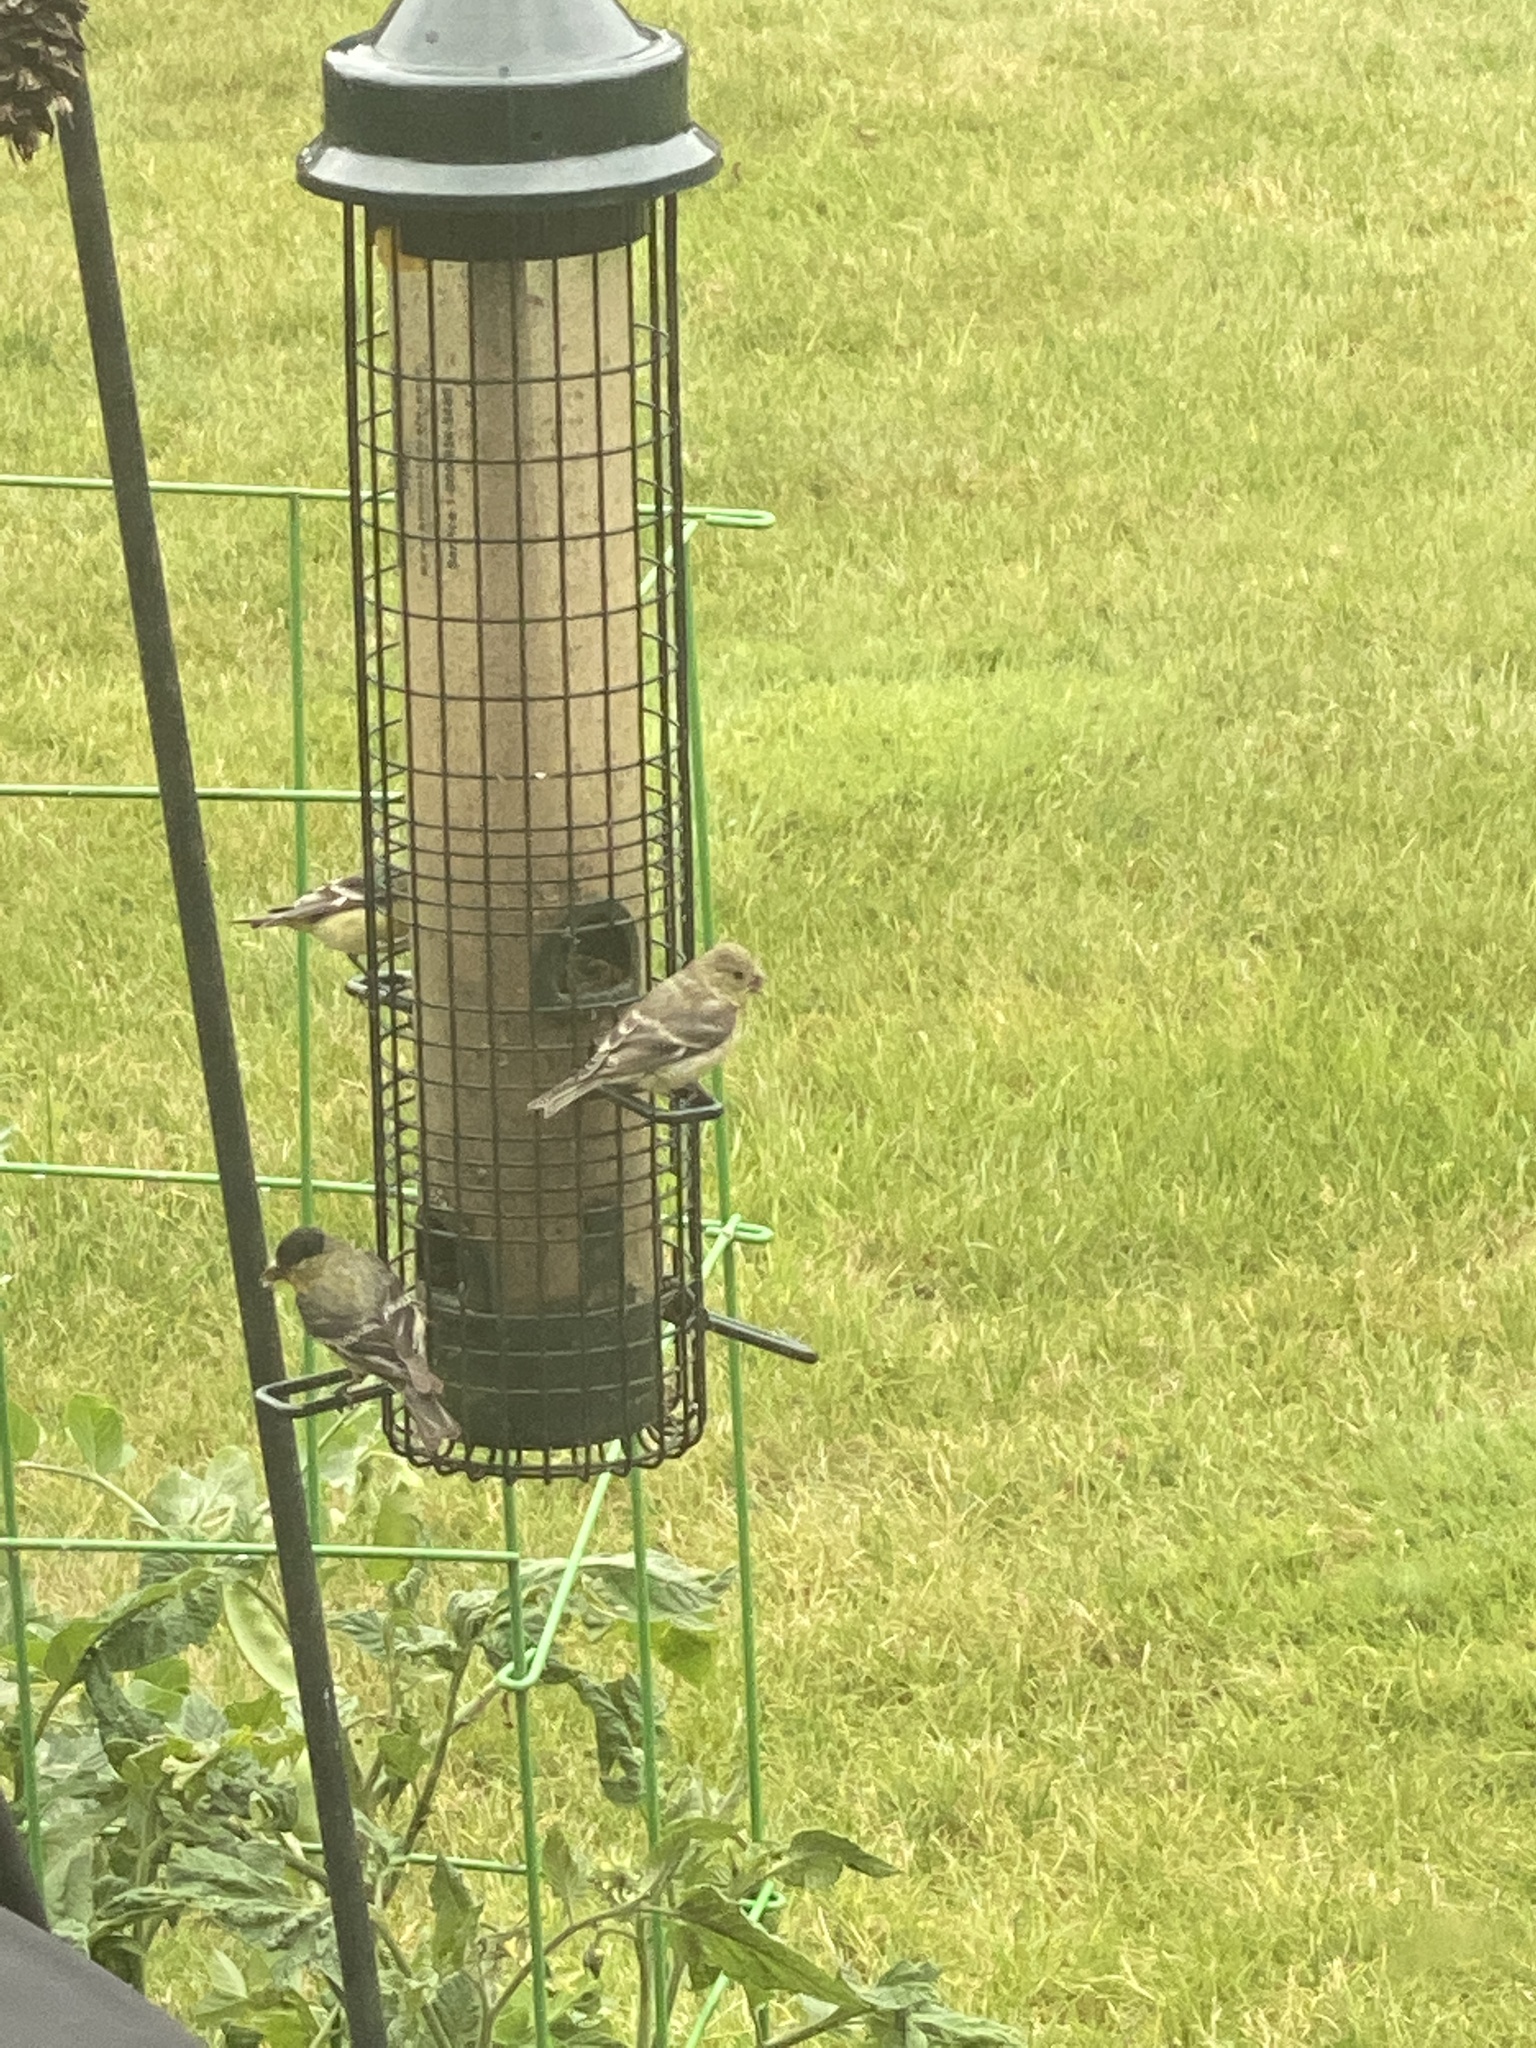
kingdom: Animalia
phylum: Chordata
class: Aves
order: Passeriformes
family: Fringillidae
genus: Spinus
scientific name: Spinus psaltria
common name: Lesser goldfinch
